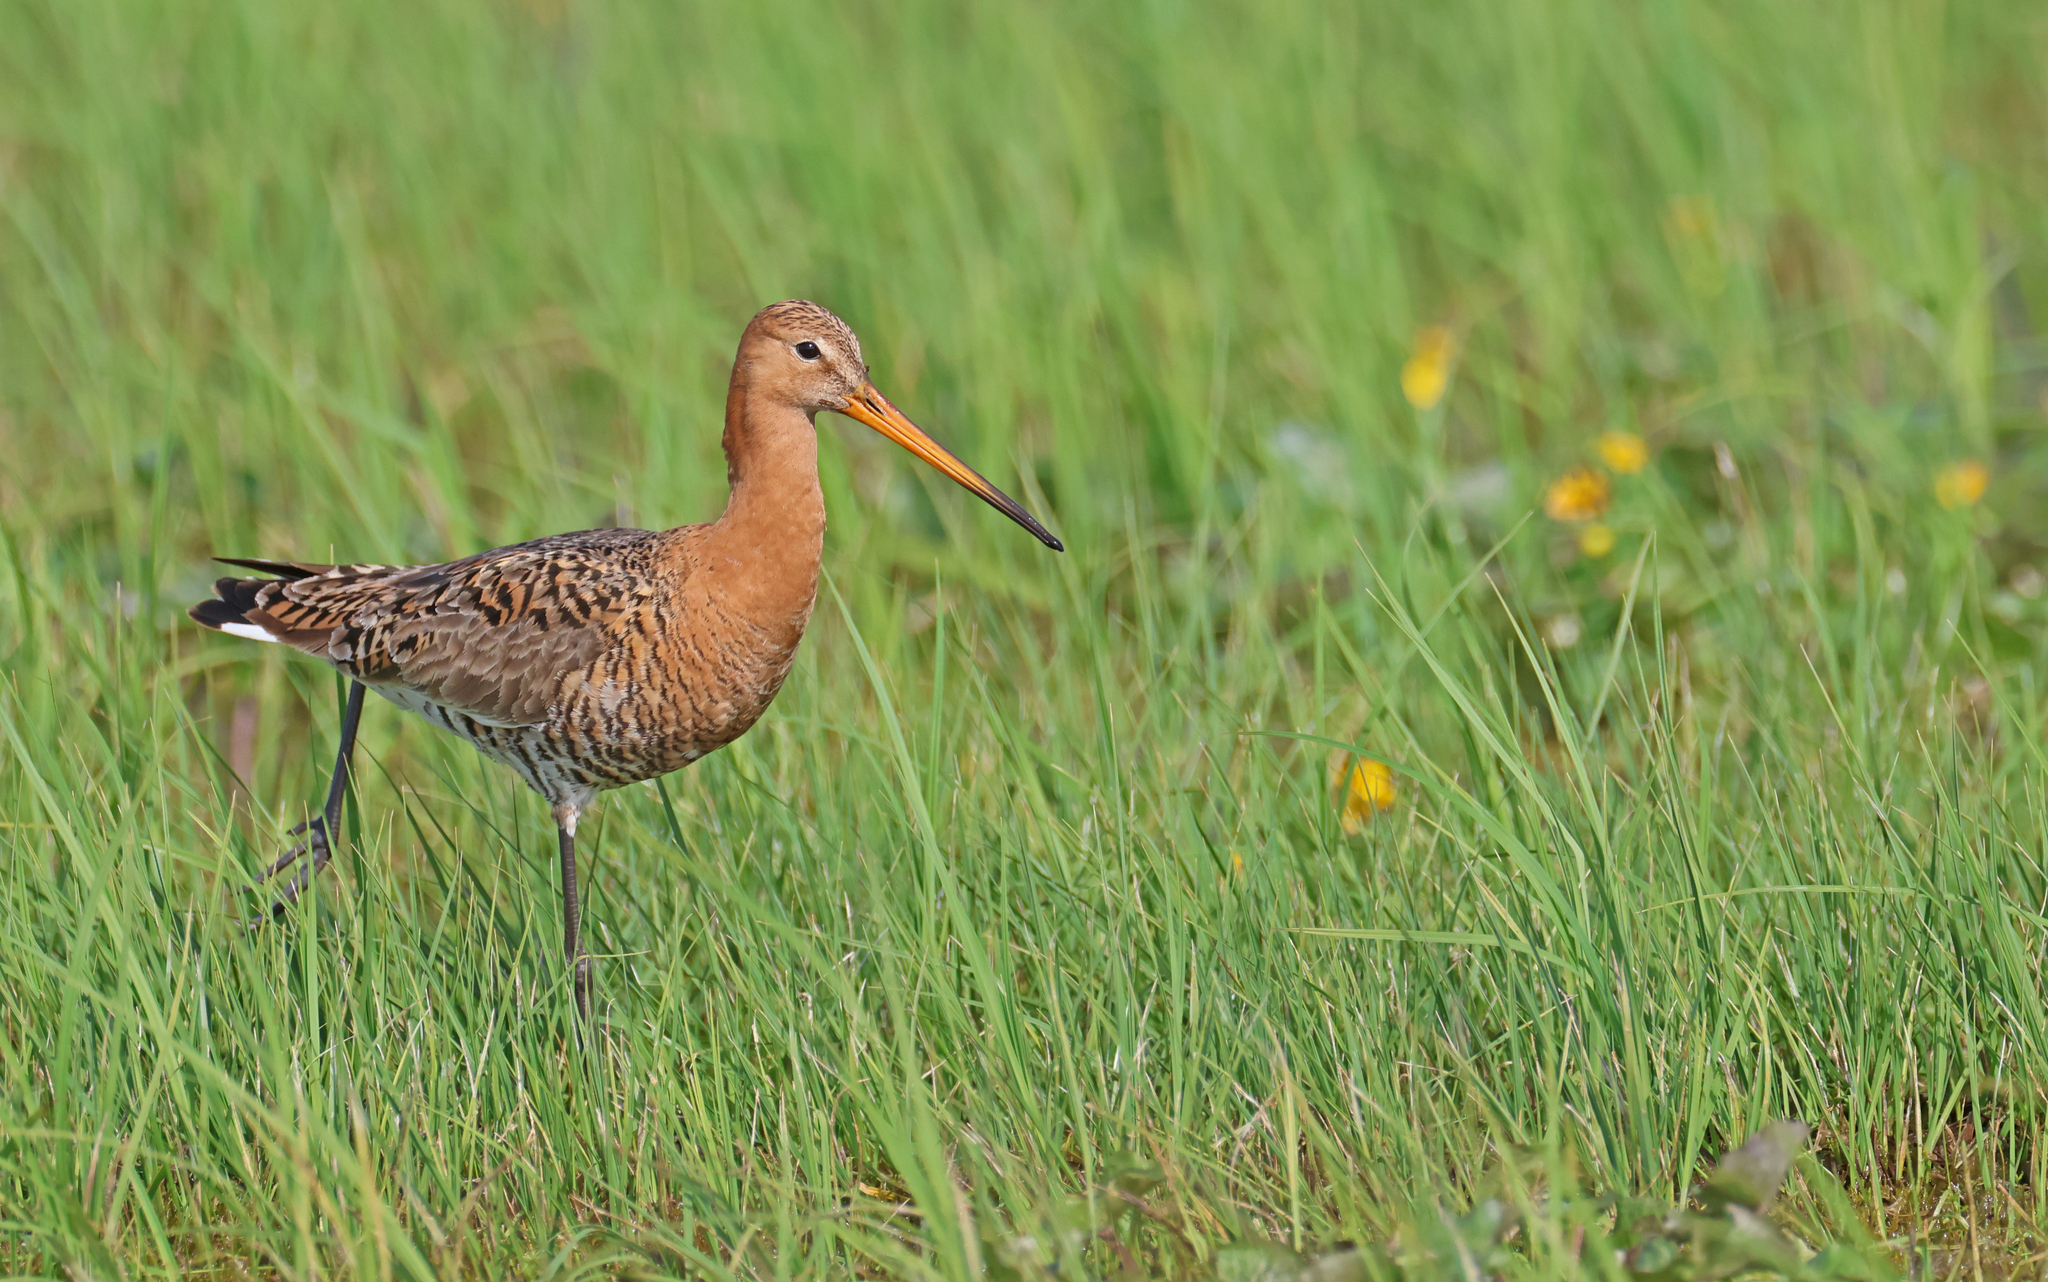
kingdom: Animalia
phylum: Chordata
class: Aves
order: Charadriiformes
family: Scolopacidae
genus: Limosa
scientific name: Limosa limosa
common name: Black-tailed godwit
